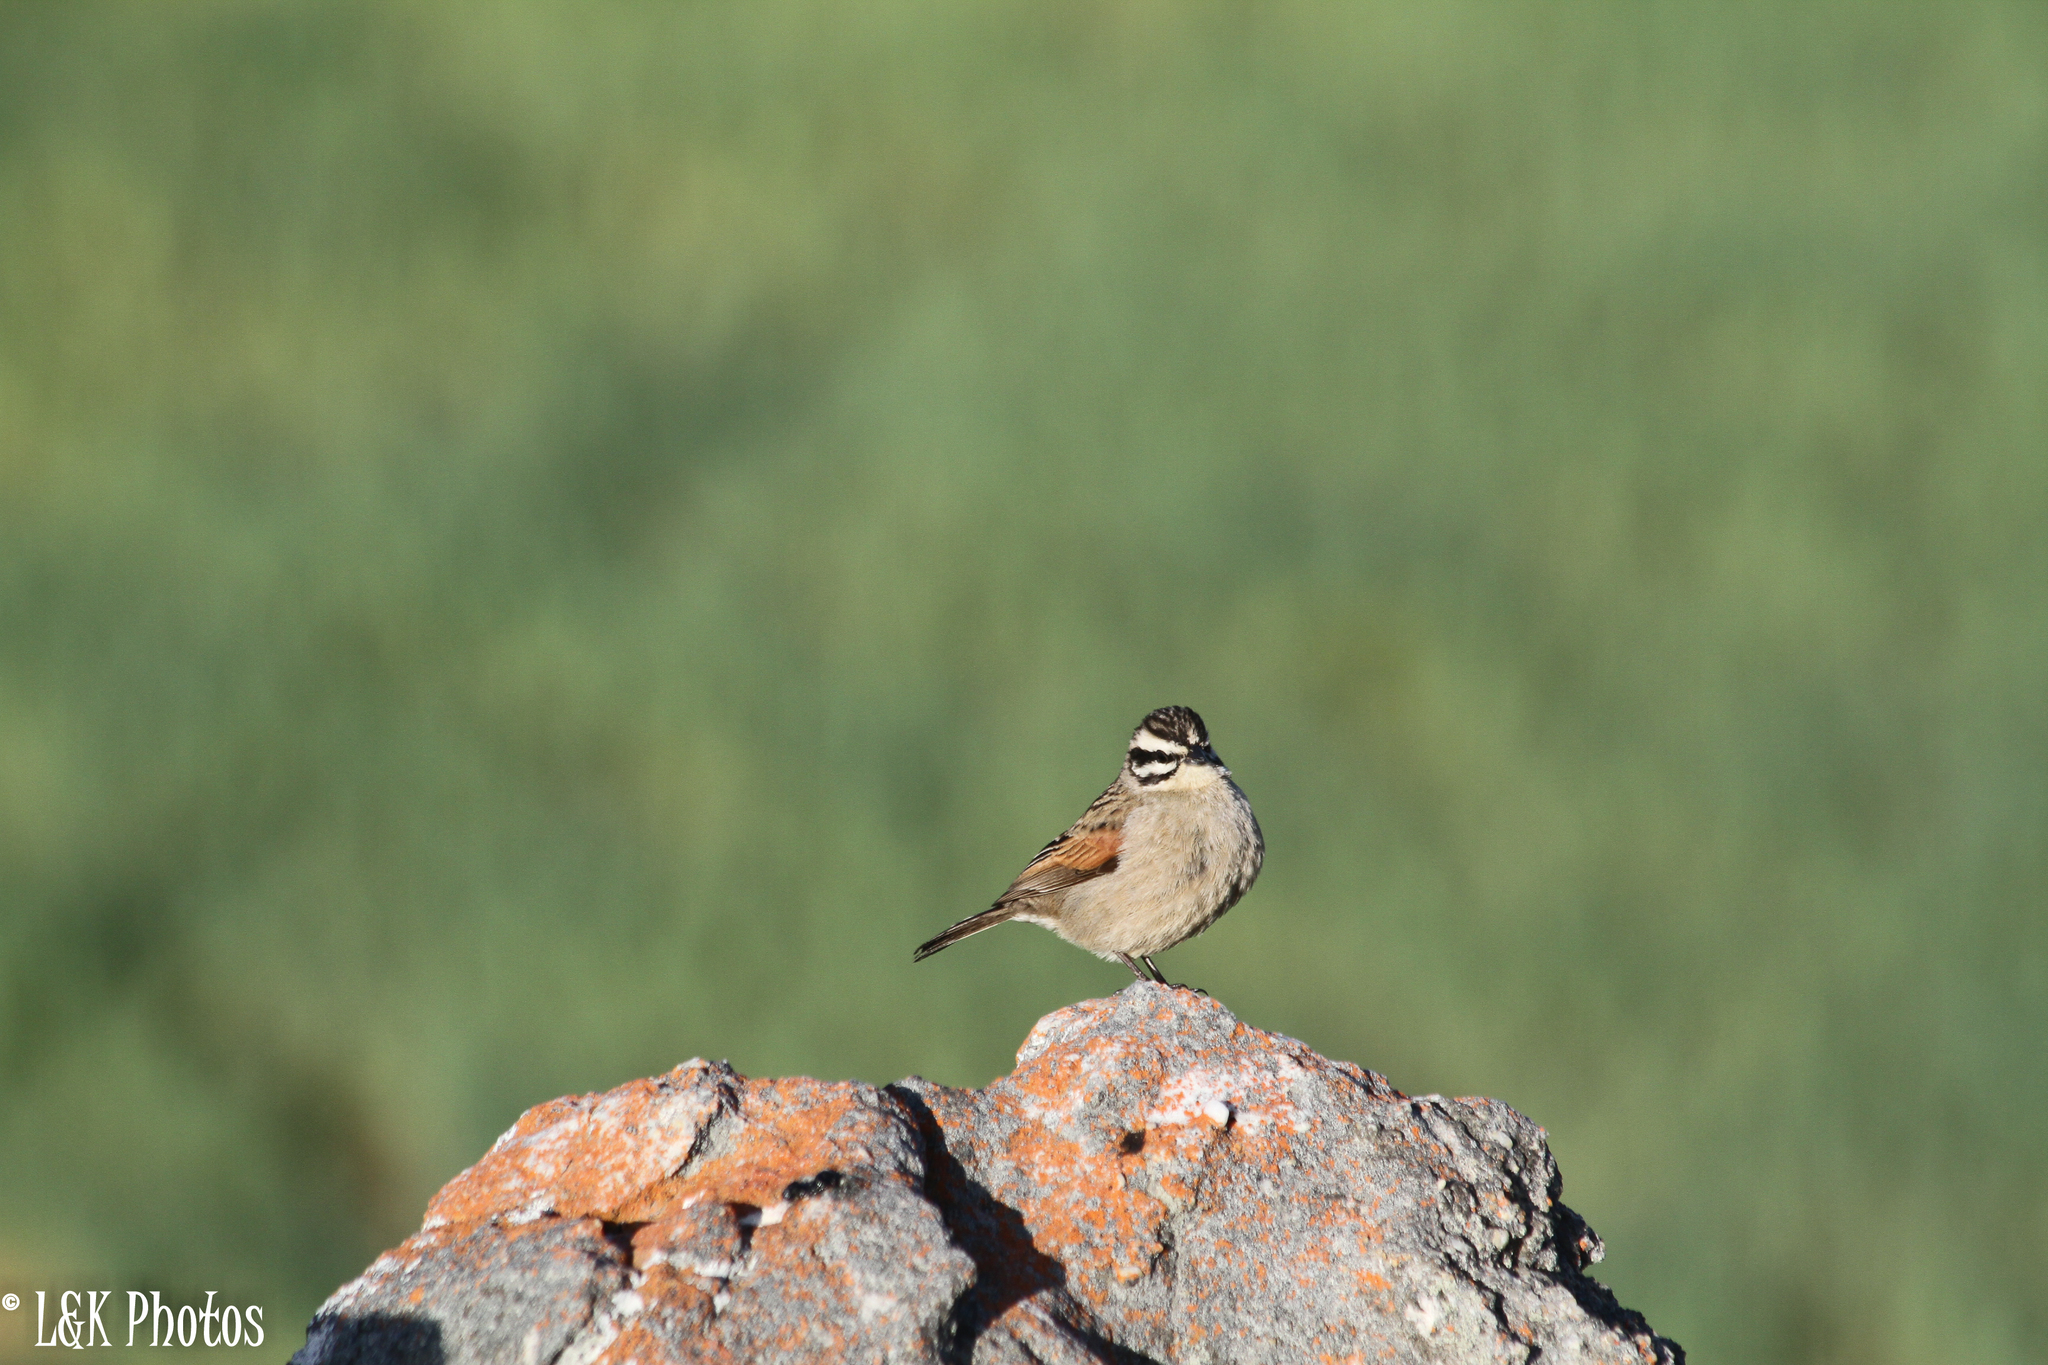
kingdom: Animalia
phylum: Chordata
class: Aves
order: Passeriformes
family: Emberizidae
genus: Emberiza
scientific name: Emberiza capensis
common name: Cape bunting
